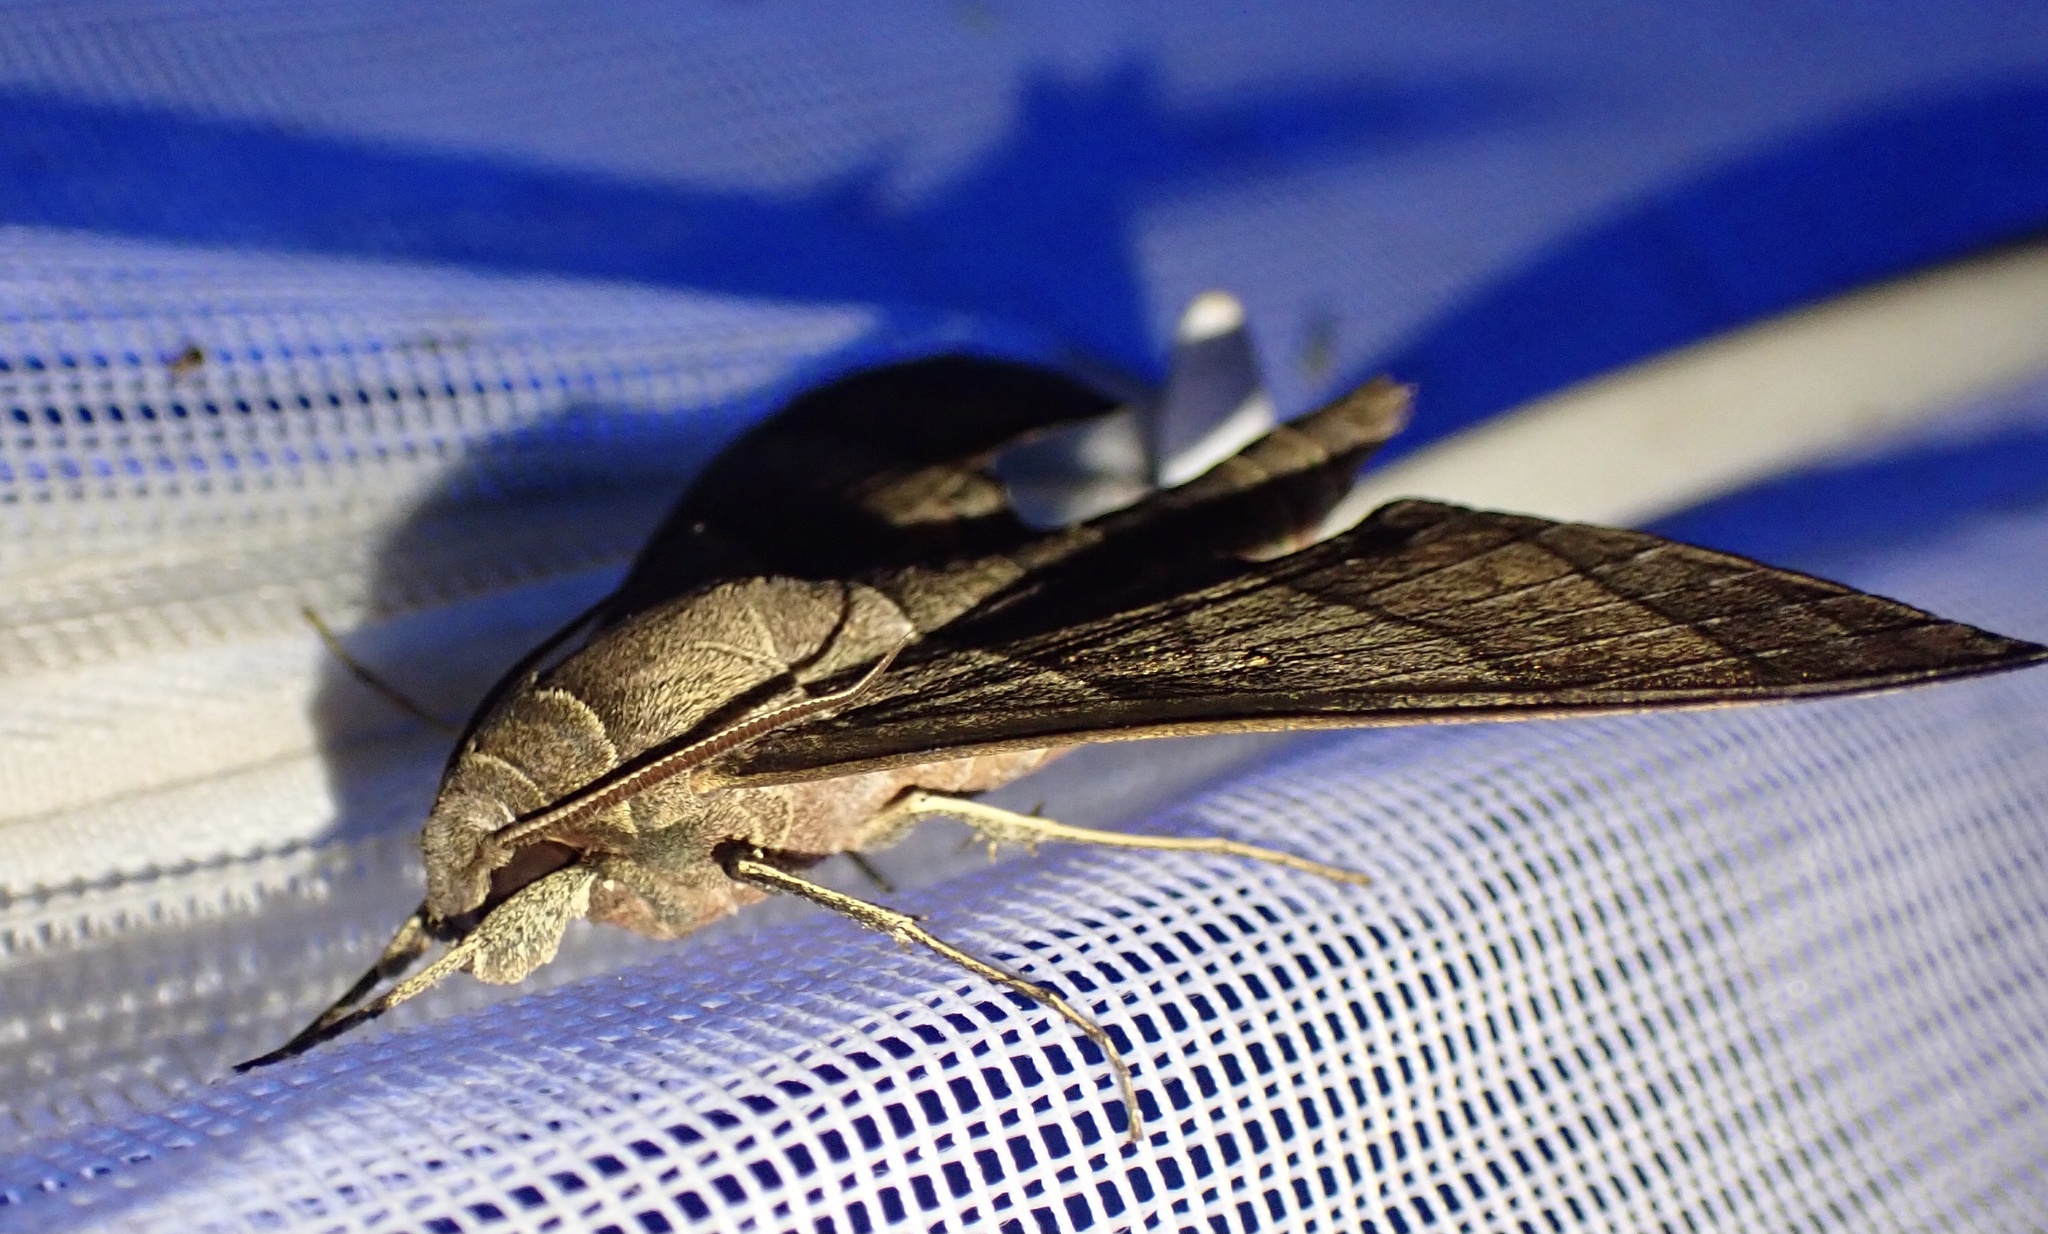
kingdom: Animalia
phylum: Arthropoda
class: Insecta
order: Lepidoptera
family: Sphingidae
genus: Polyptychus
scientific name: Polyptychus orthographus
